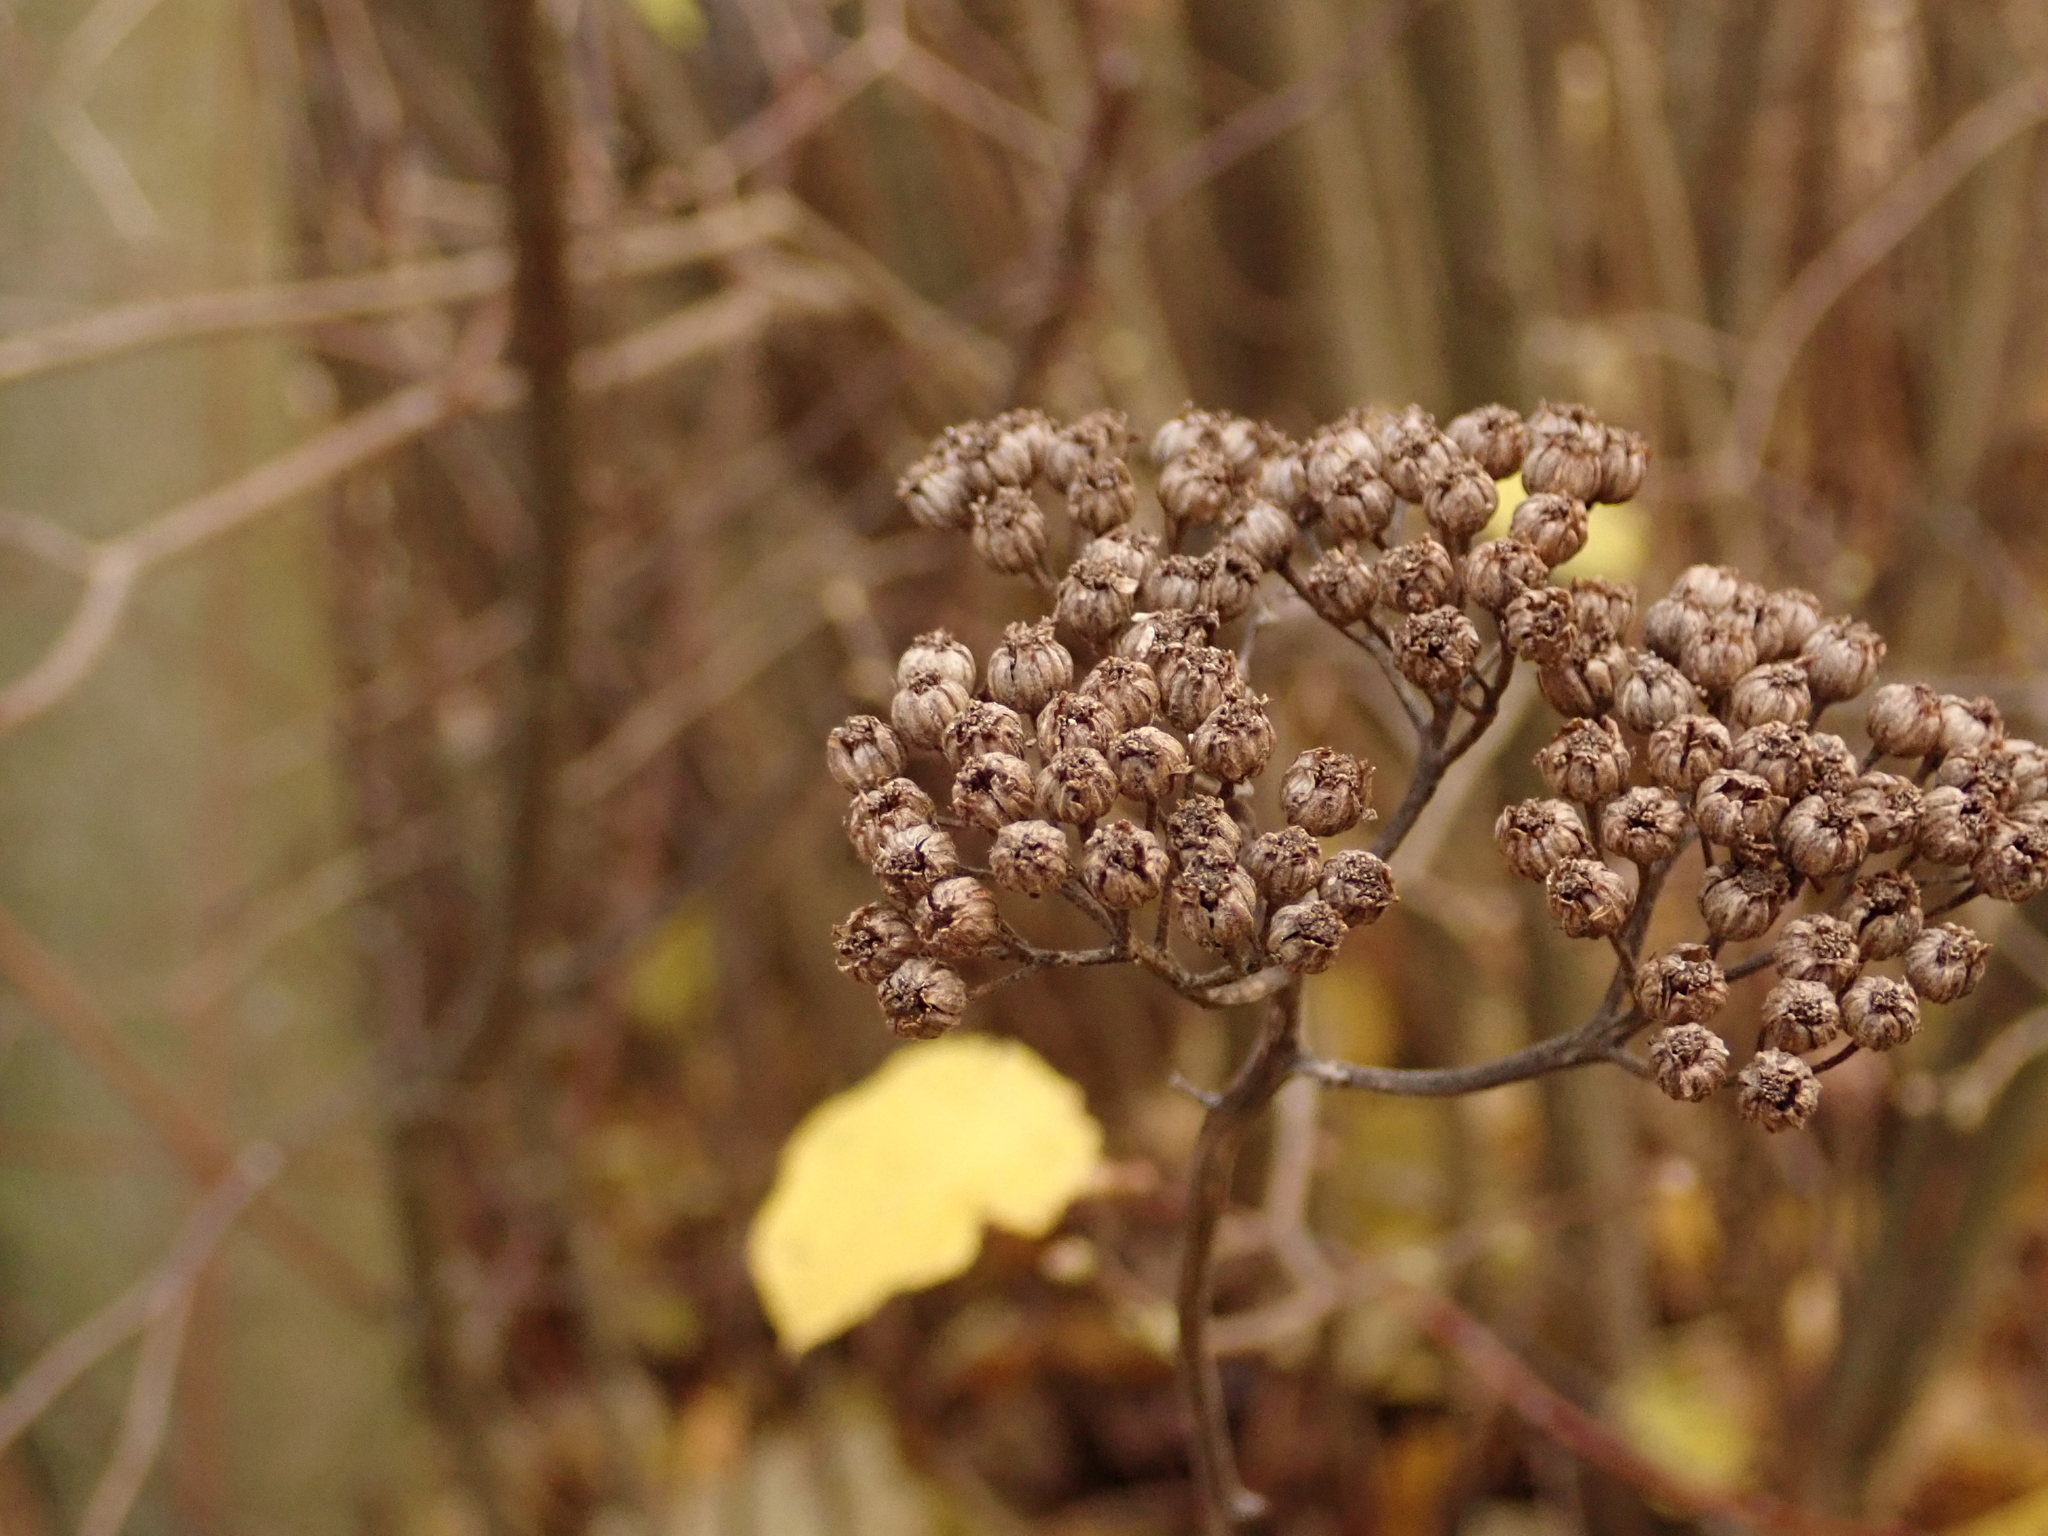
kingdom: Plantae
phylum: Tracheophyta
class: Magnoliopsida
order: Asterales
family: Asteraceae
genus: Tanacetum
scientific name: Tanacetum vulgare
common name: Common tansy
